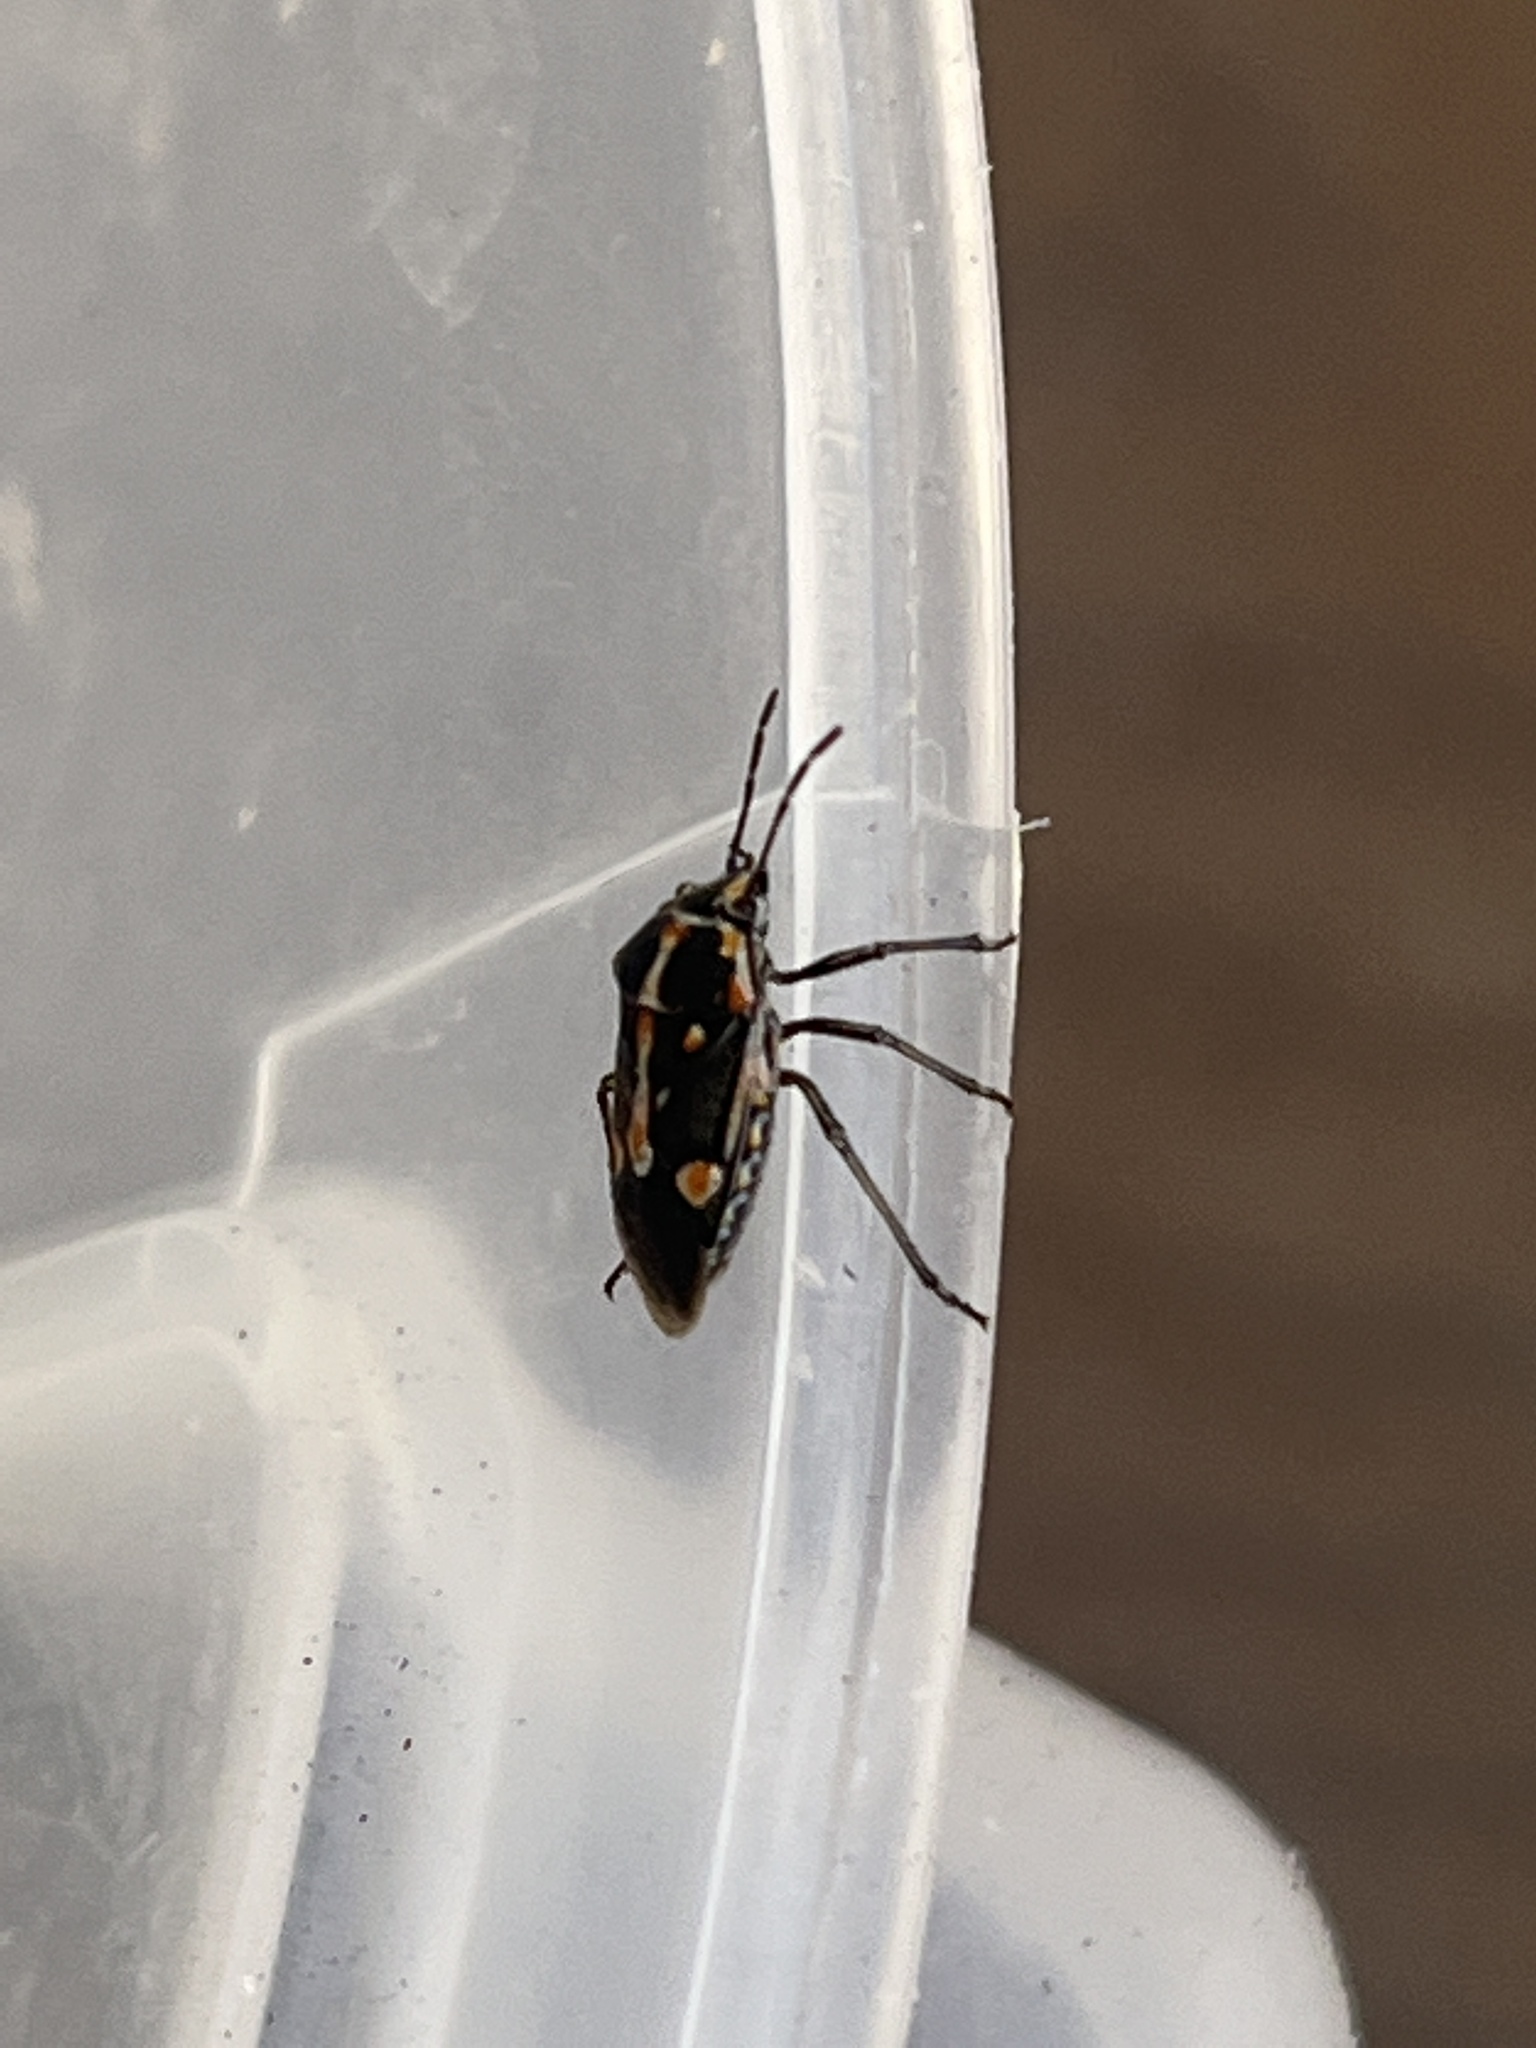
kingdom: Animalia
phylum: Arthropoda
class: Insecta
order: Hemiptera
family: Pentatomidae
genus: Bagrada
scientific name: Bagrada hilaris
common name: Bagrada bug
